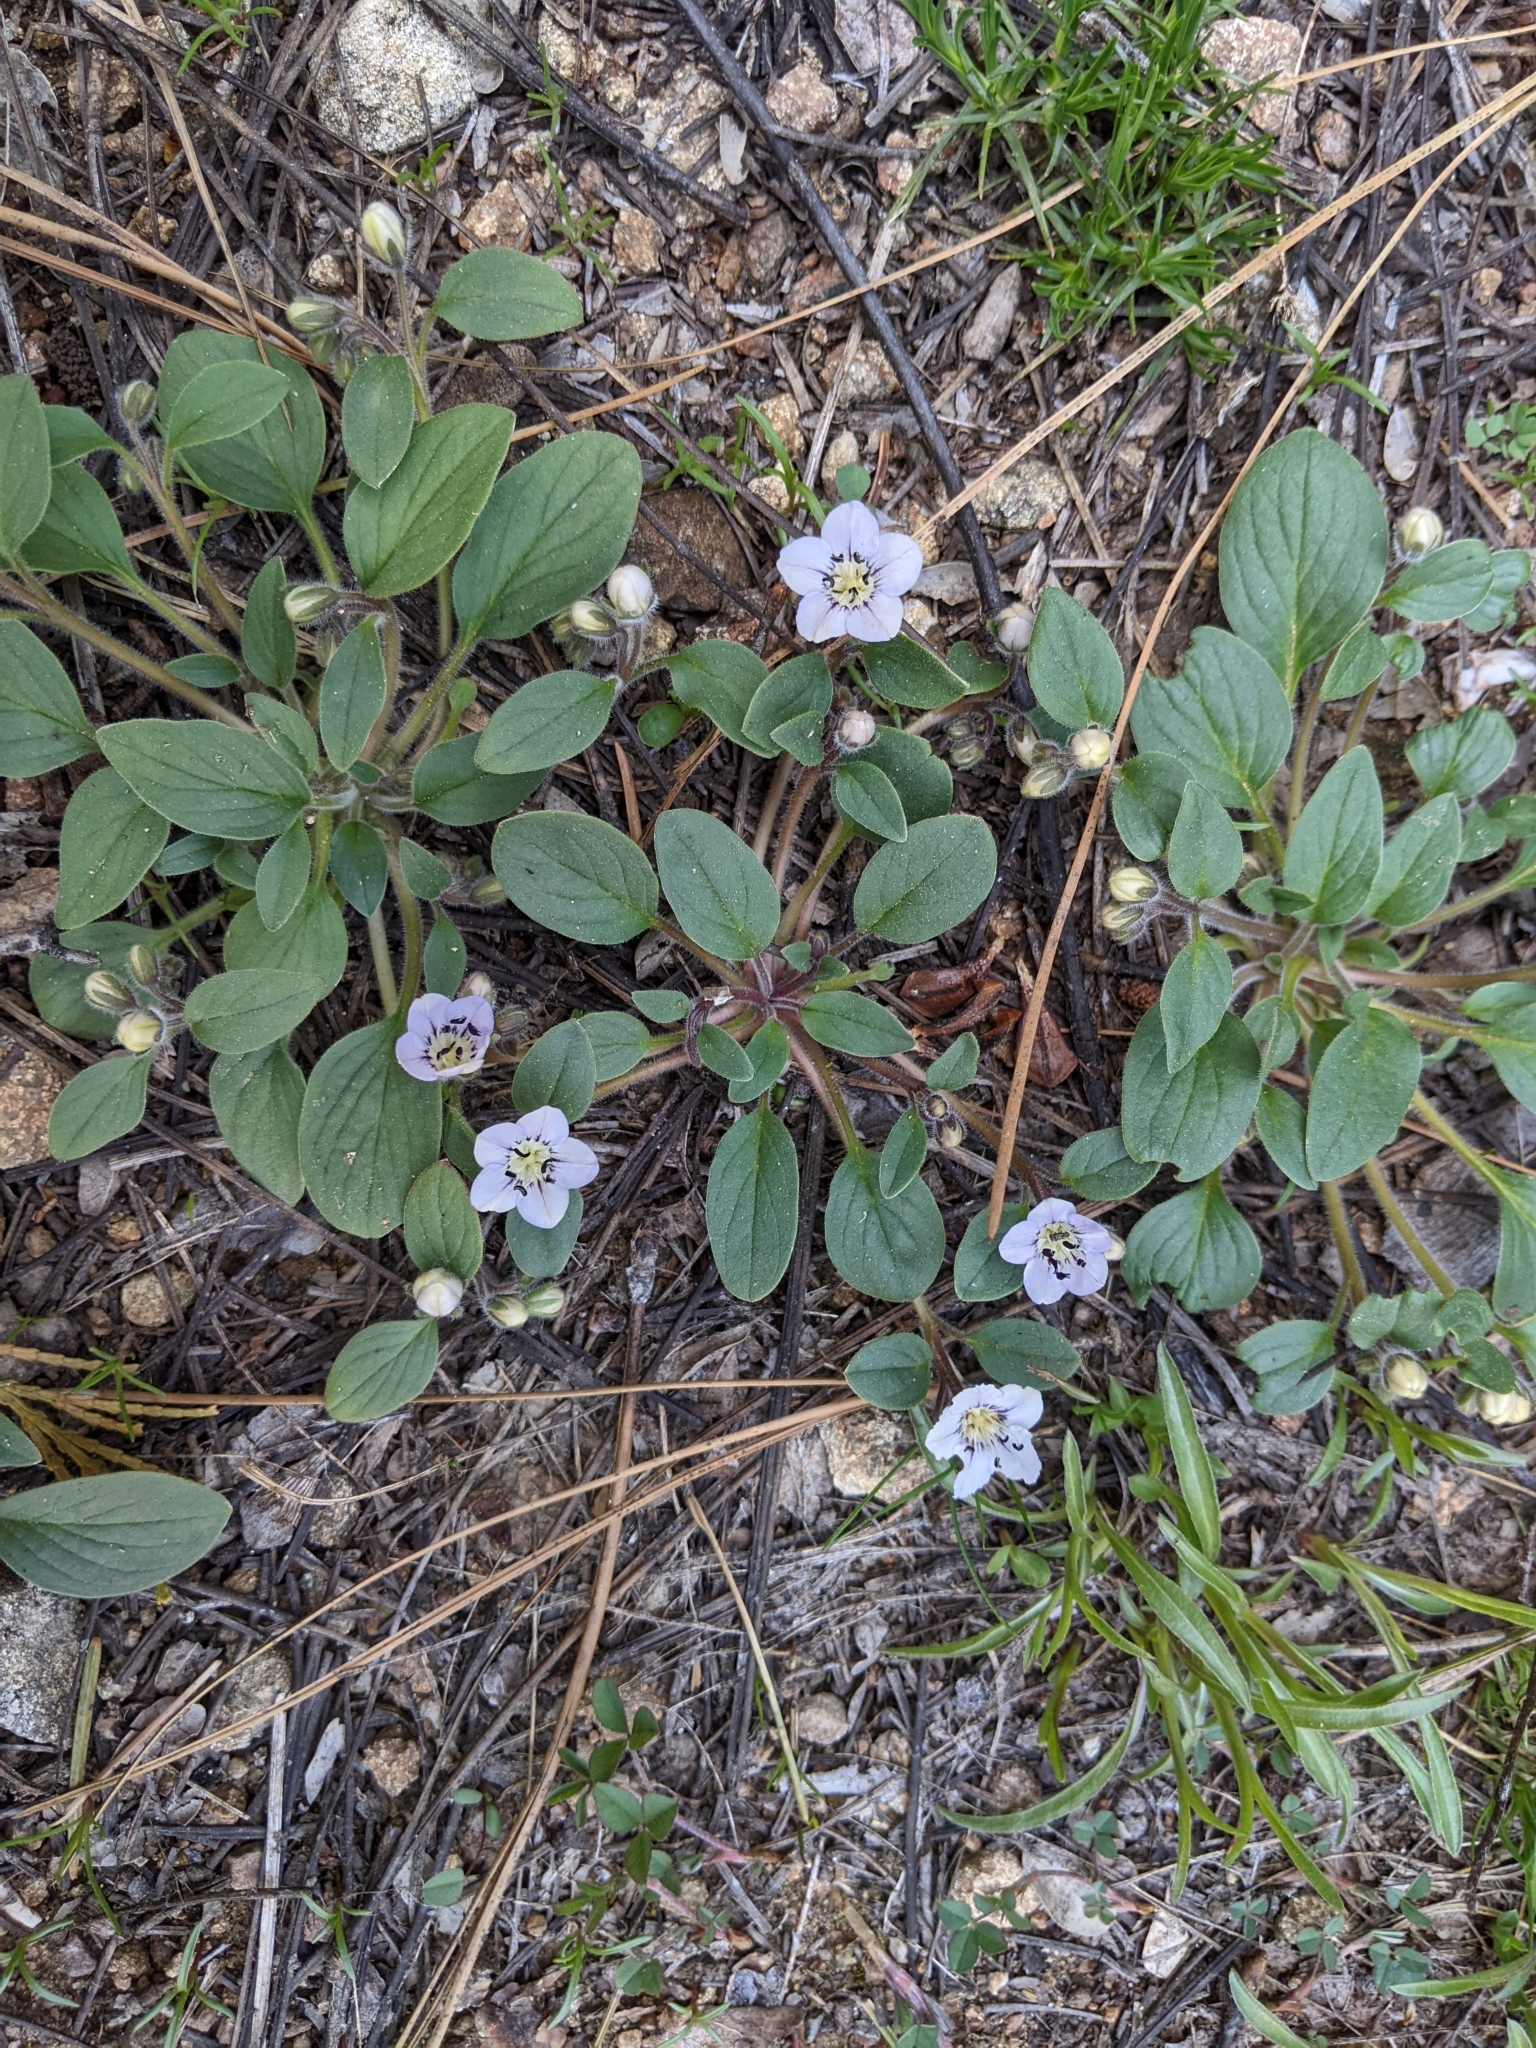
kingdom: Plantae
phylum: Tracheophyta
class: Magnoliopsida
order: Boraginales
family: Hydrophyllaceae
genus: Howellanthus
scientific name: Howellanthus dalesianus
